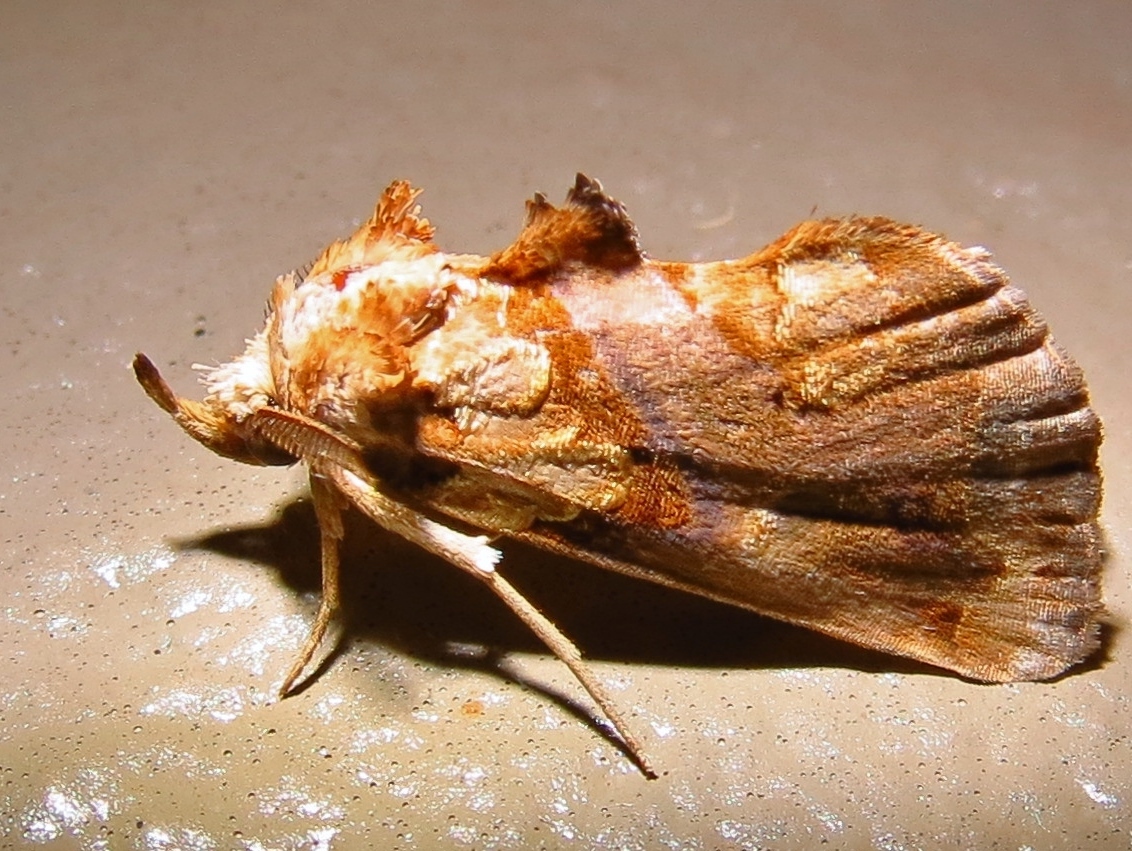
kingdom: Animalia
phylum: Arthropoda
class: Insecta
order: Lepidoptera
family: Erebidae
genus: Plusiodonta
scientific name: Plusiodonta compressipalpis
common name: Moonseed moth
